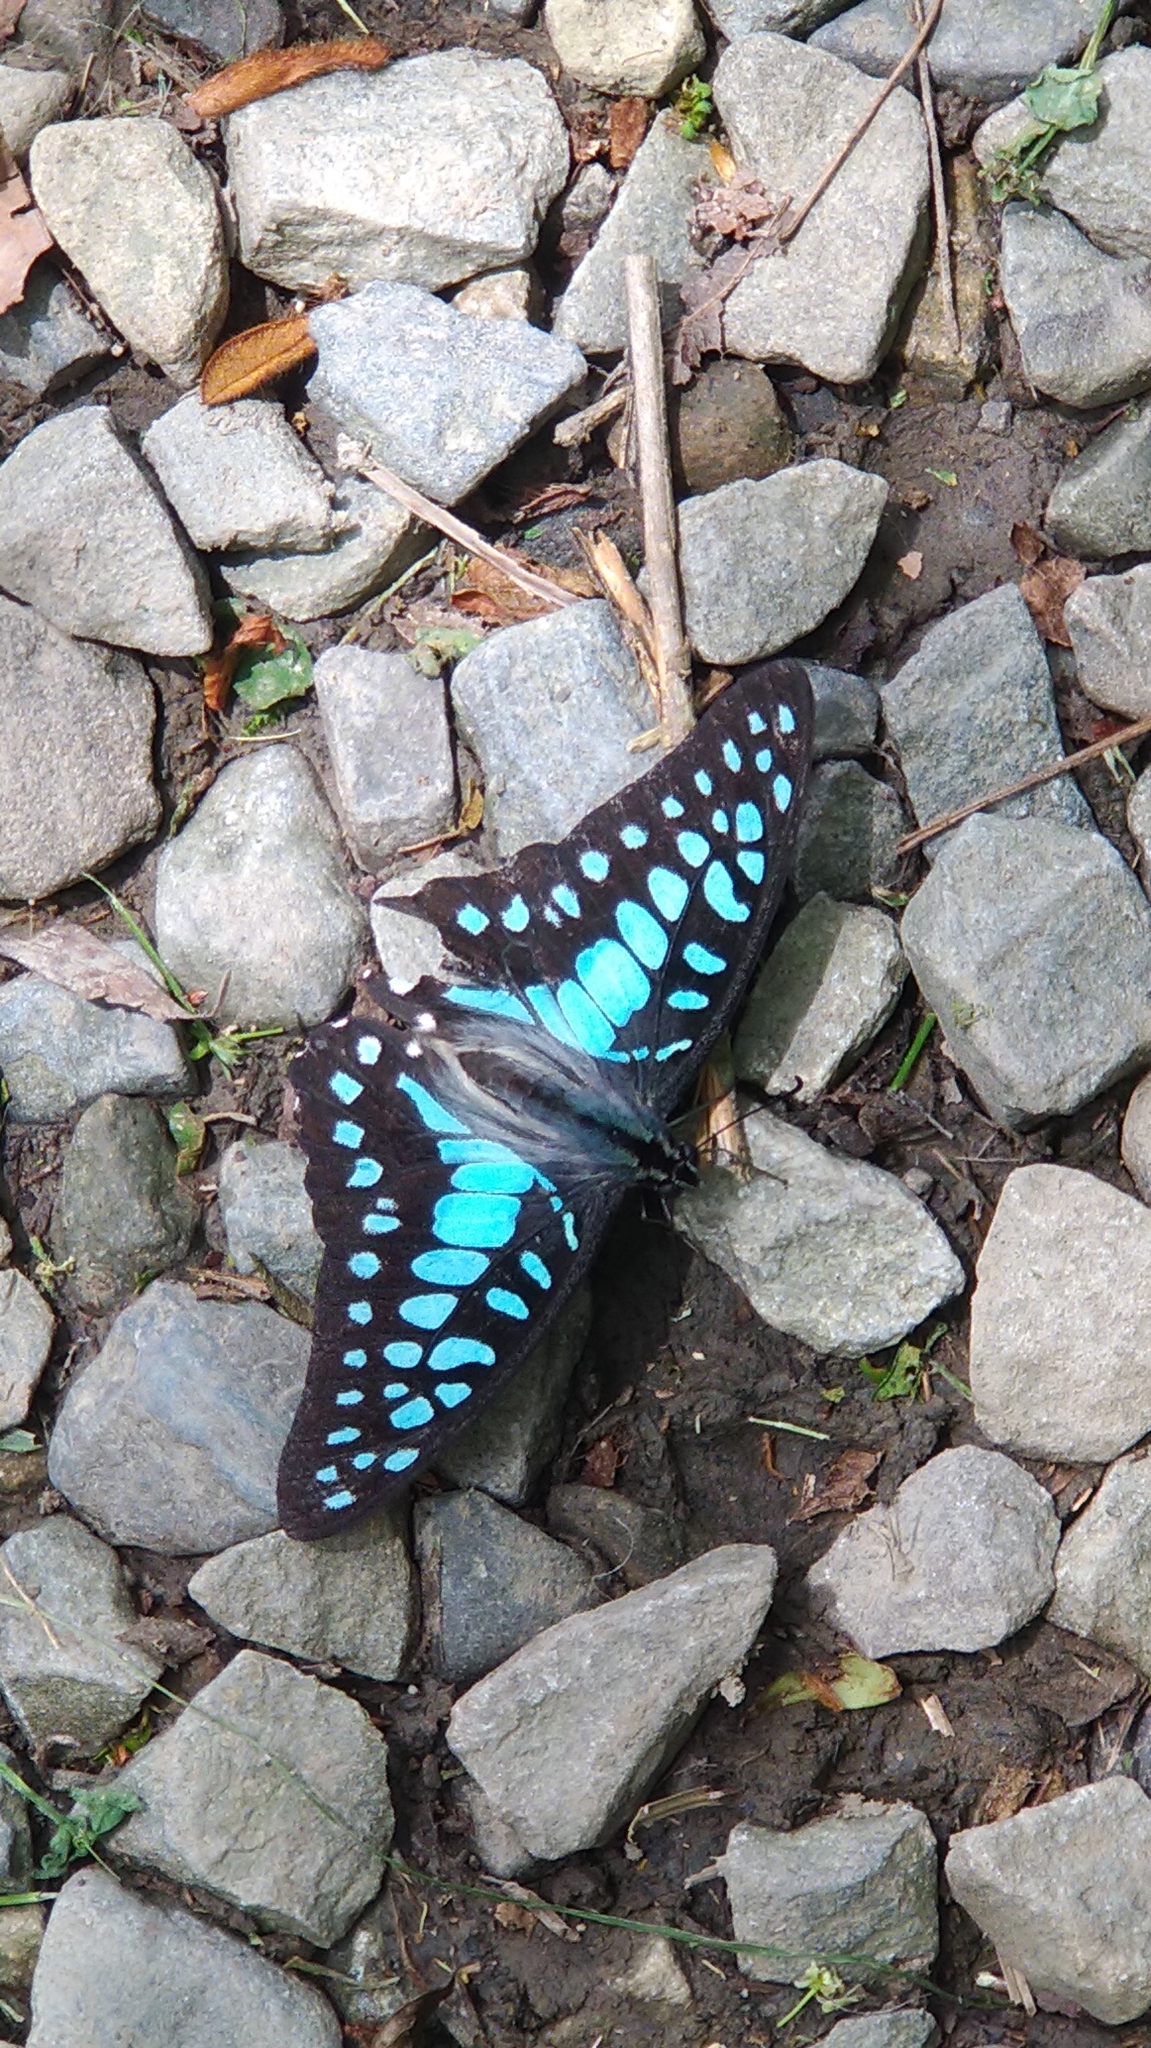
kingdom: Animalia
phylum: Arthropoda
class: Insecta
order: Lepidoptera
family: Papilionidae
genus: Graphium
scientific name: Graphium doson
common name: Common jay
